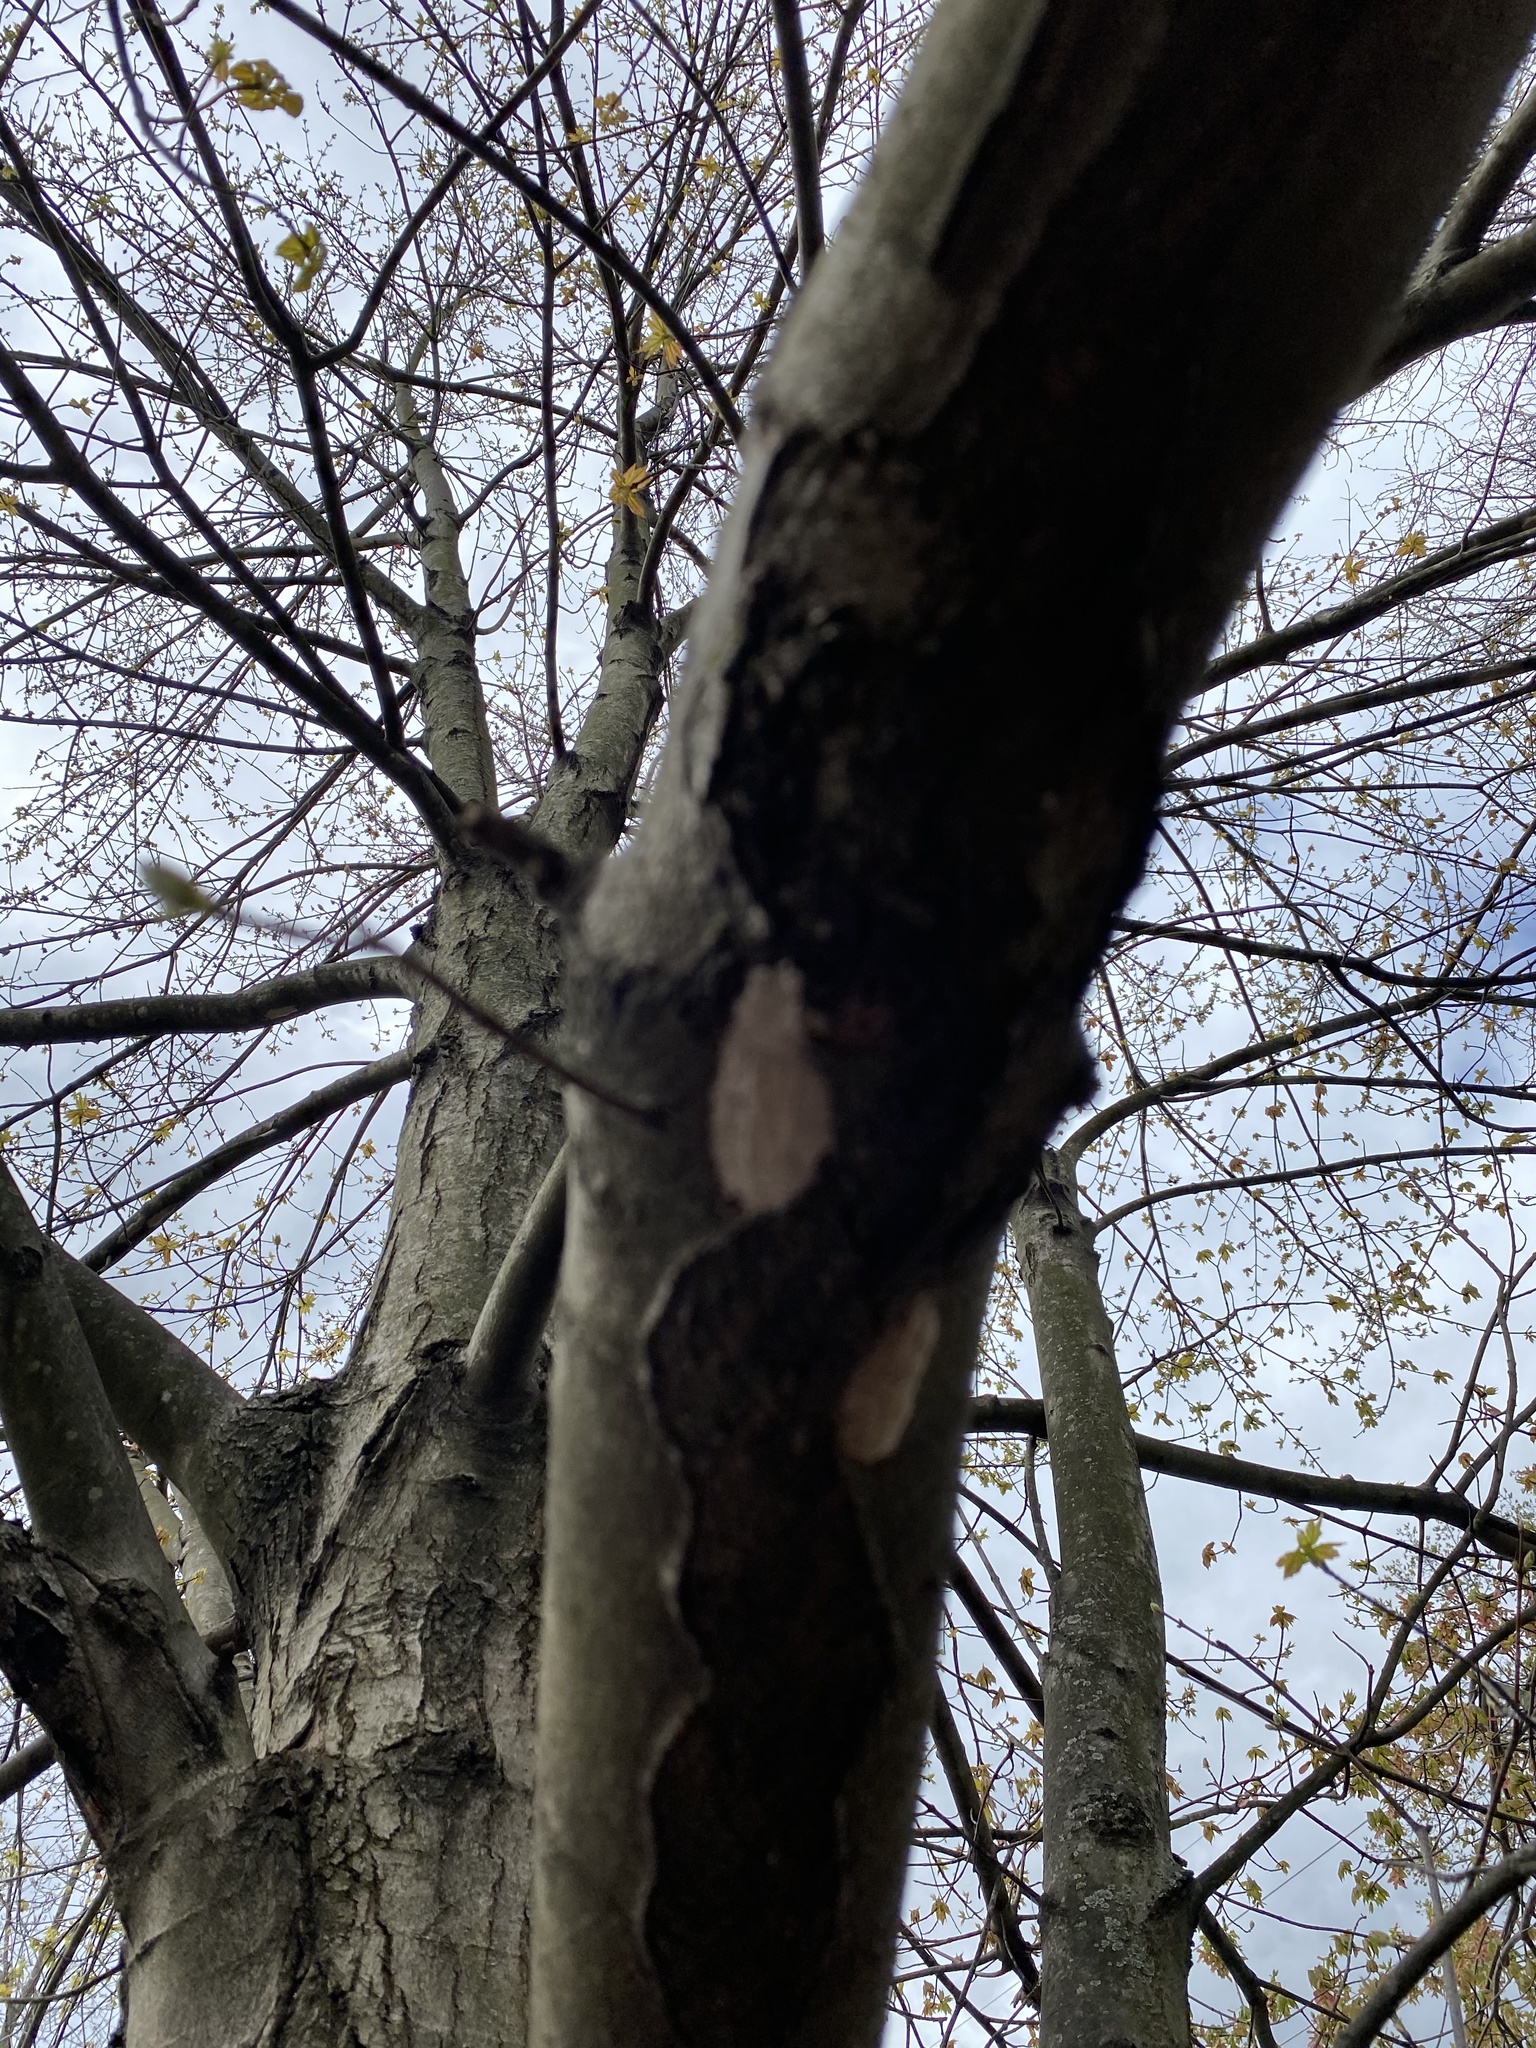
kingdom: Animalia
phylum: Arthropoda
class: Insecta
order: Hemiptera
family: Fulgoridae
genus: Lycorma
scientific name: Lycorma delicatula
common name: Spotted lanternfly
